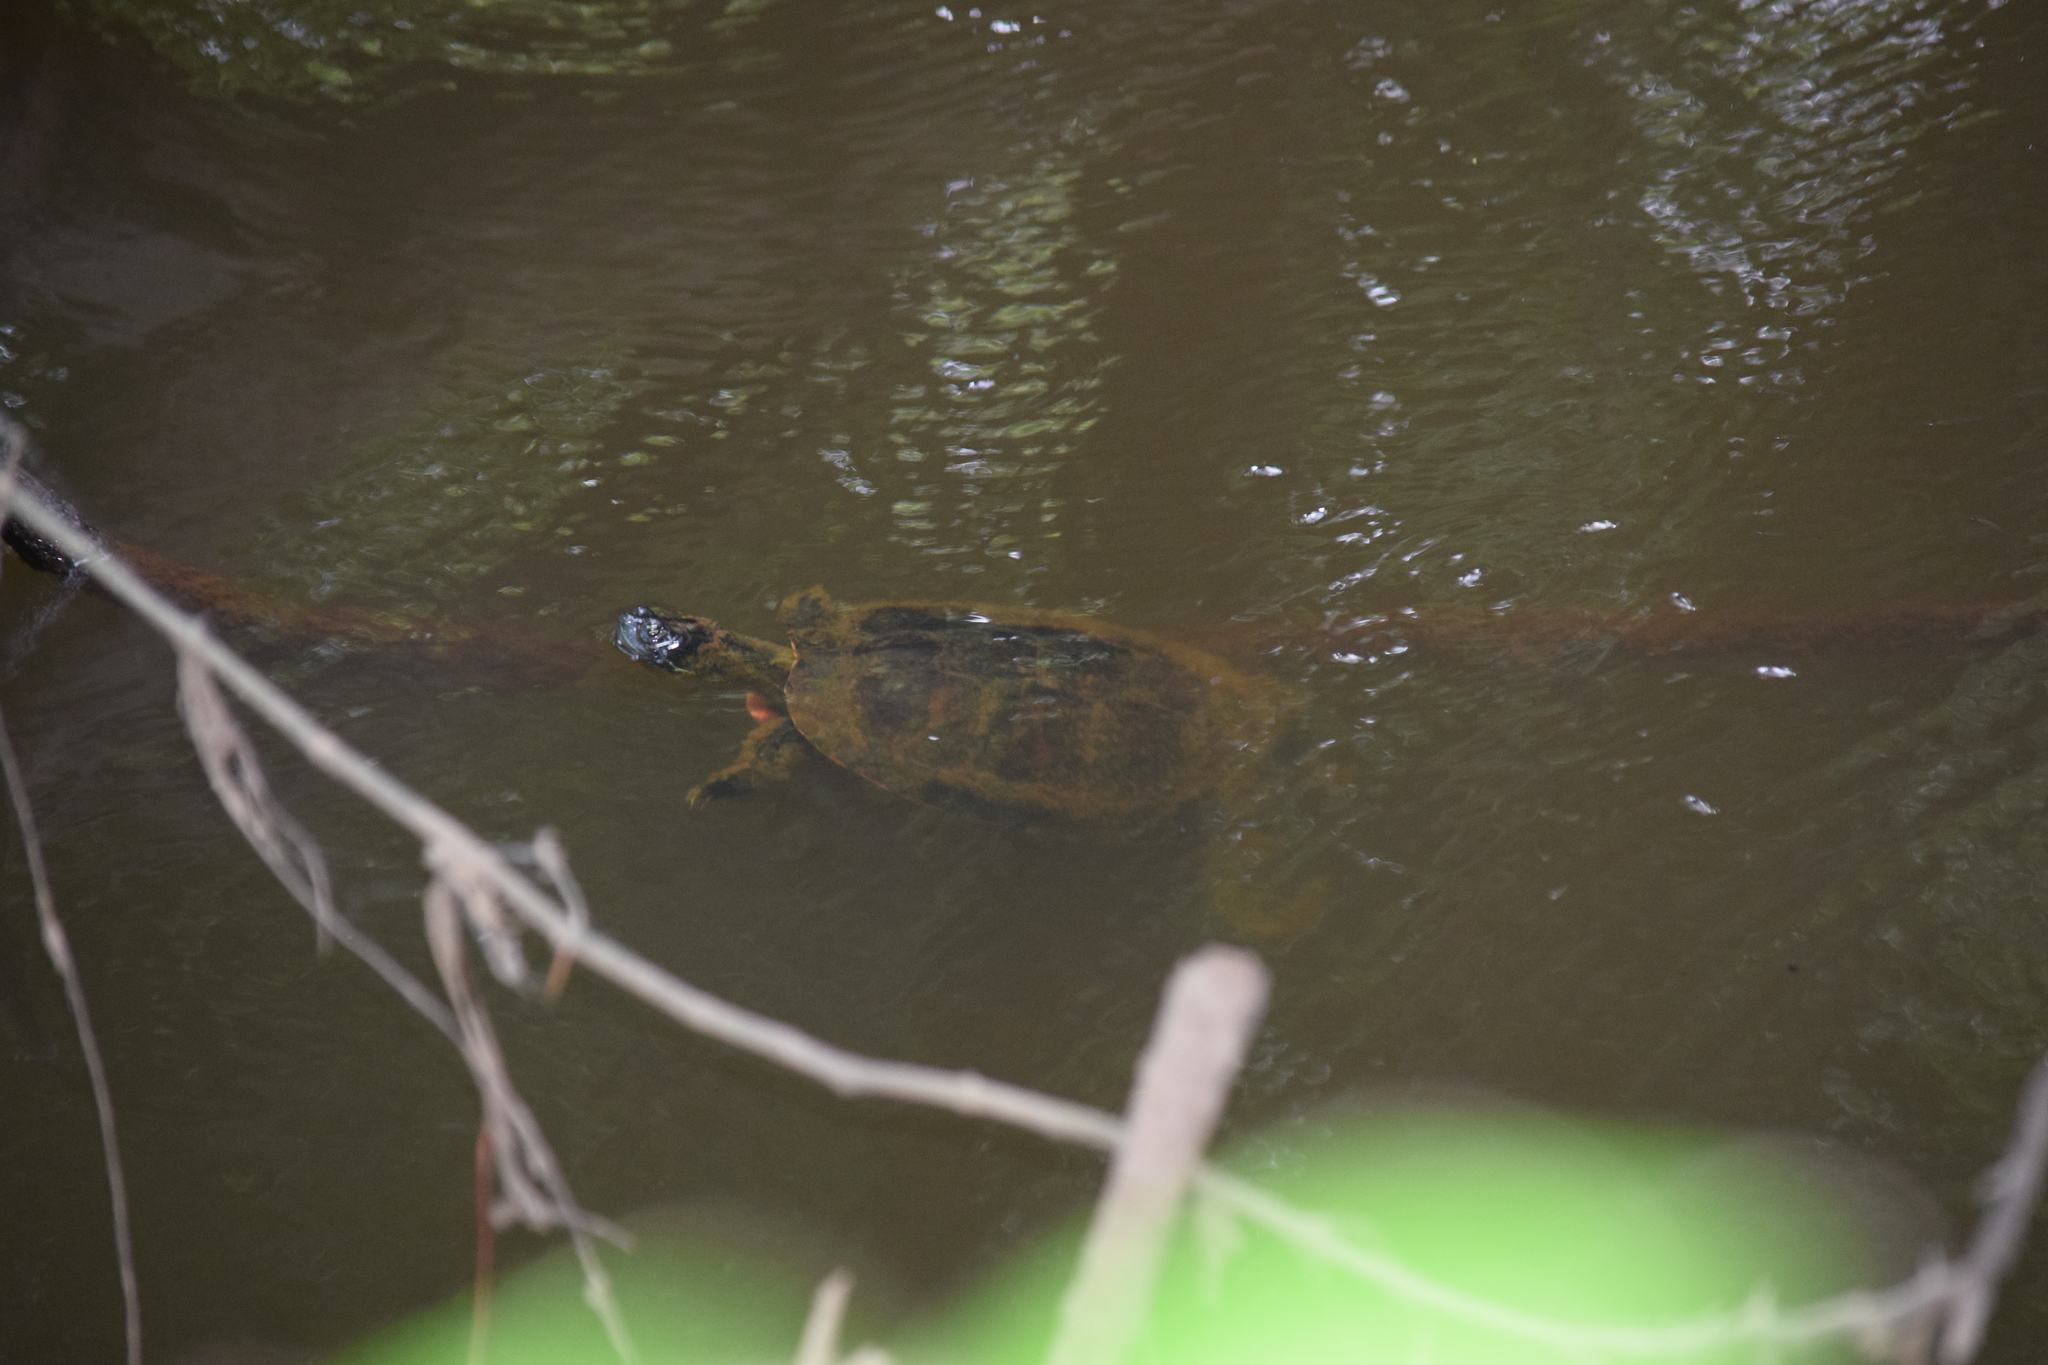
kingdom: Animalia
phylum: Chordata
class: Testudines
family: Emydidae
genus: Pseudemys
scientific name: Pseudemys rubriventris
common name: American red-bellied turtle
